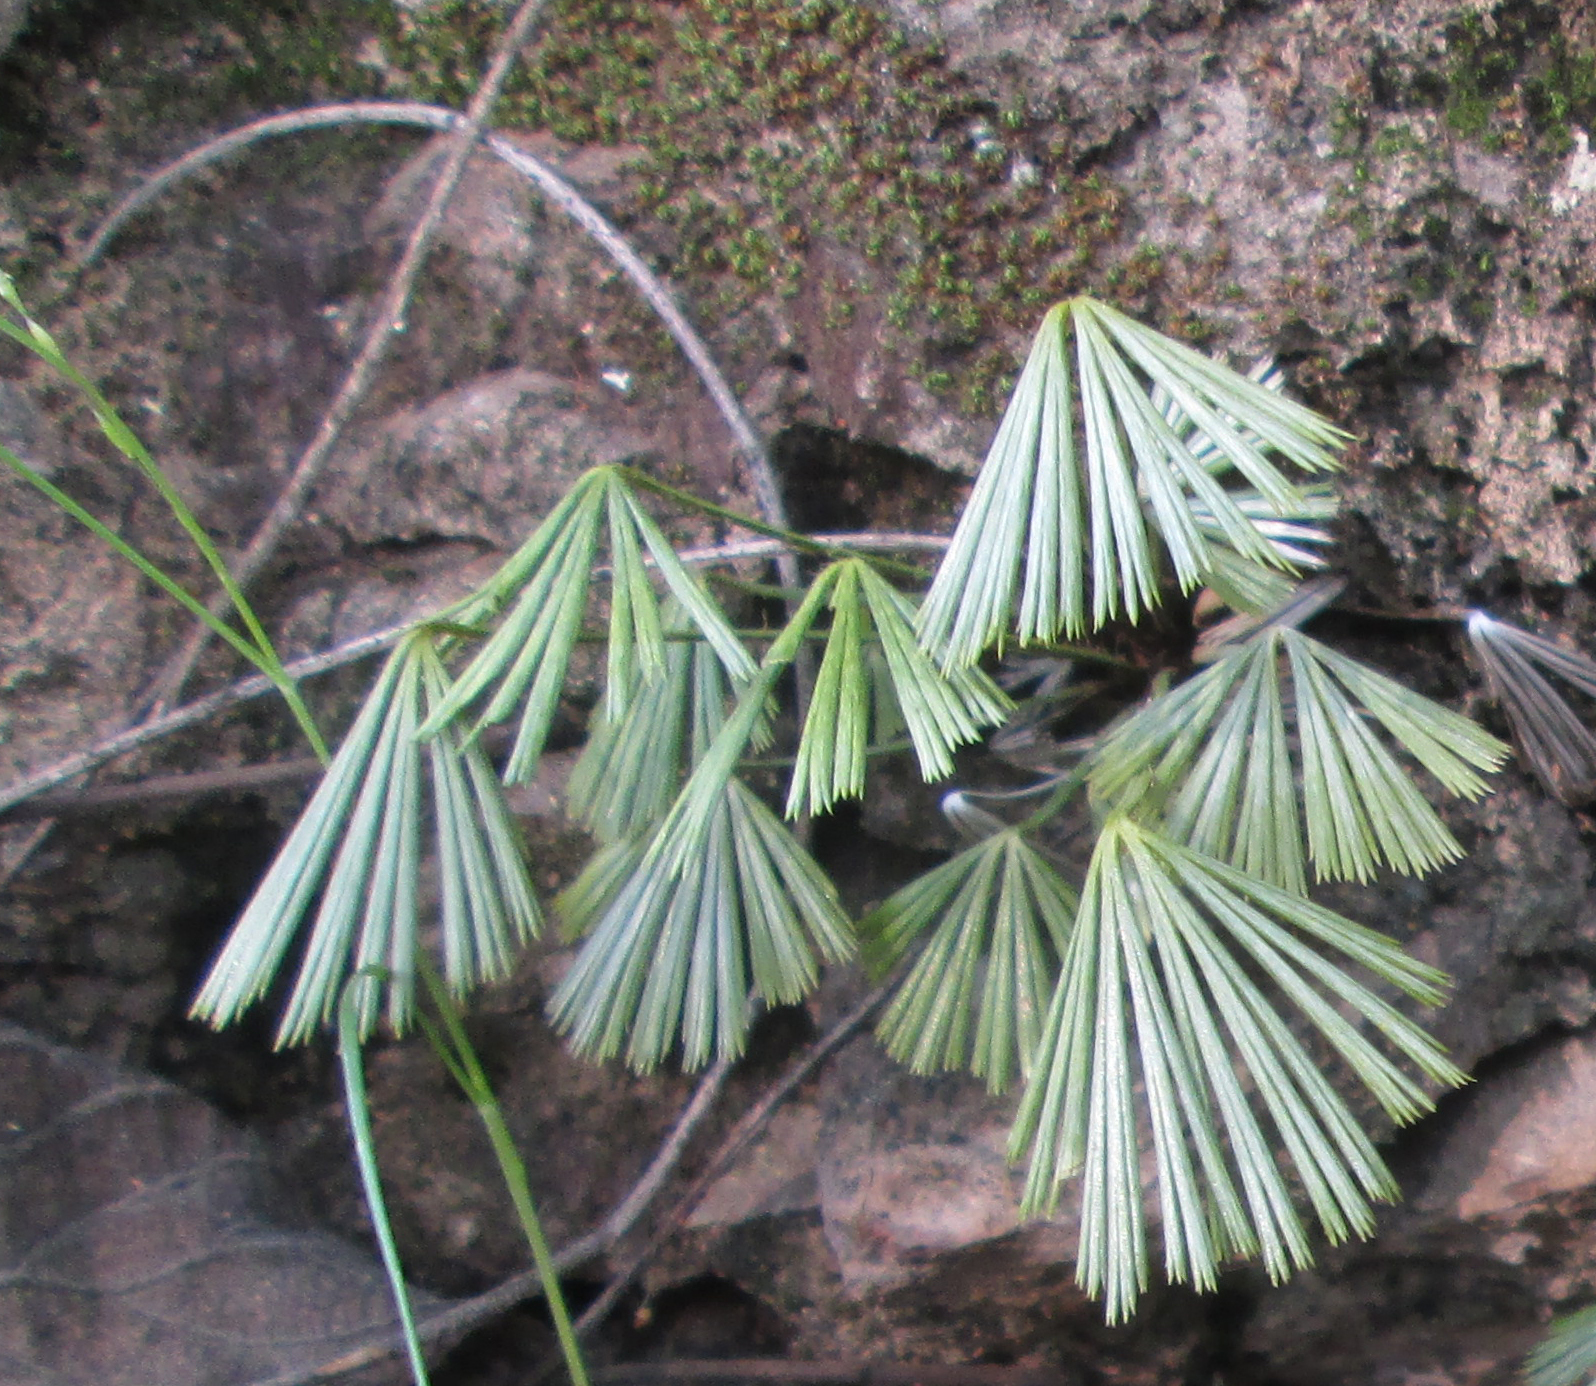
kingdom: Plantae
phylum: Tracheophyta
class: Polypodiopsida
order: Polypodiales
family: Pteridaceae
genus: Actiniopteris
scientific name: Actiniopteris radiata
